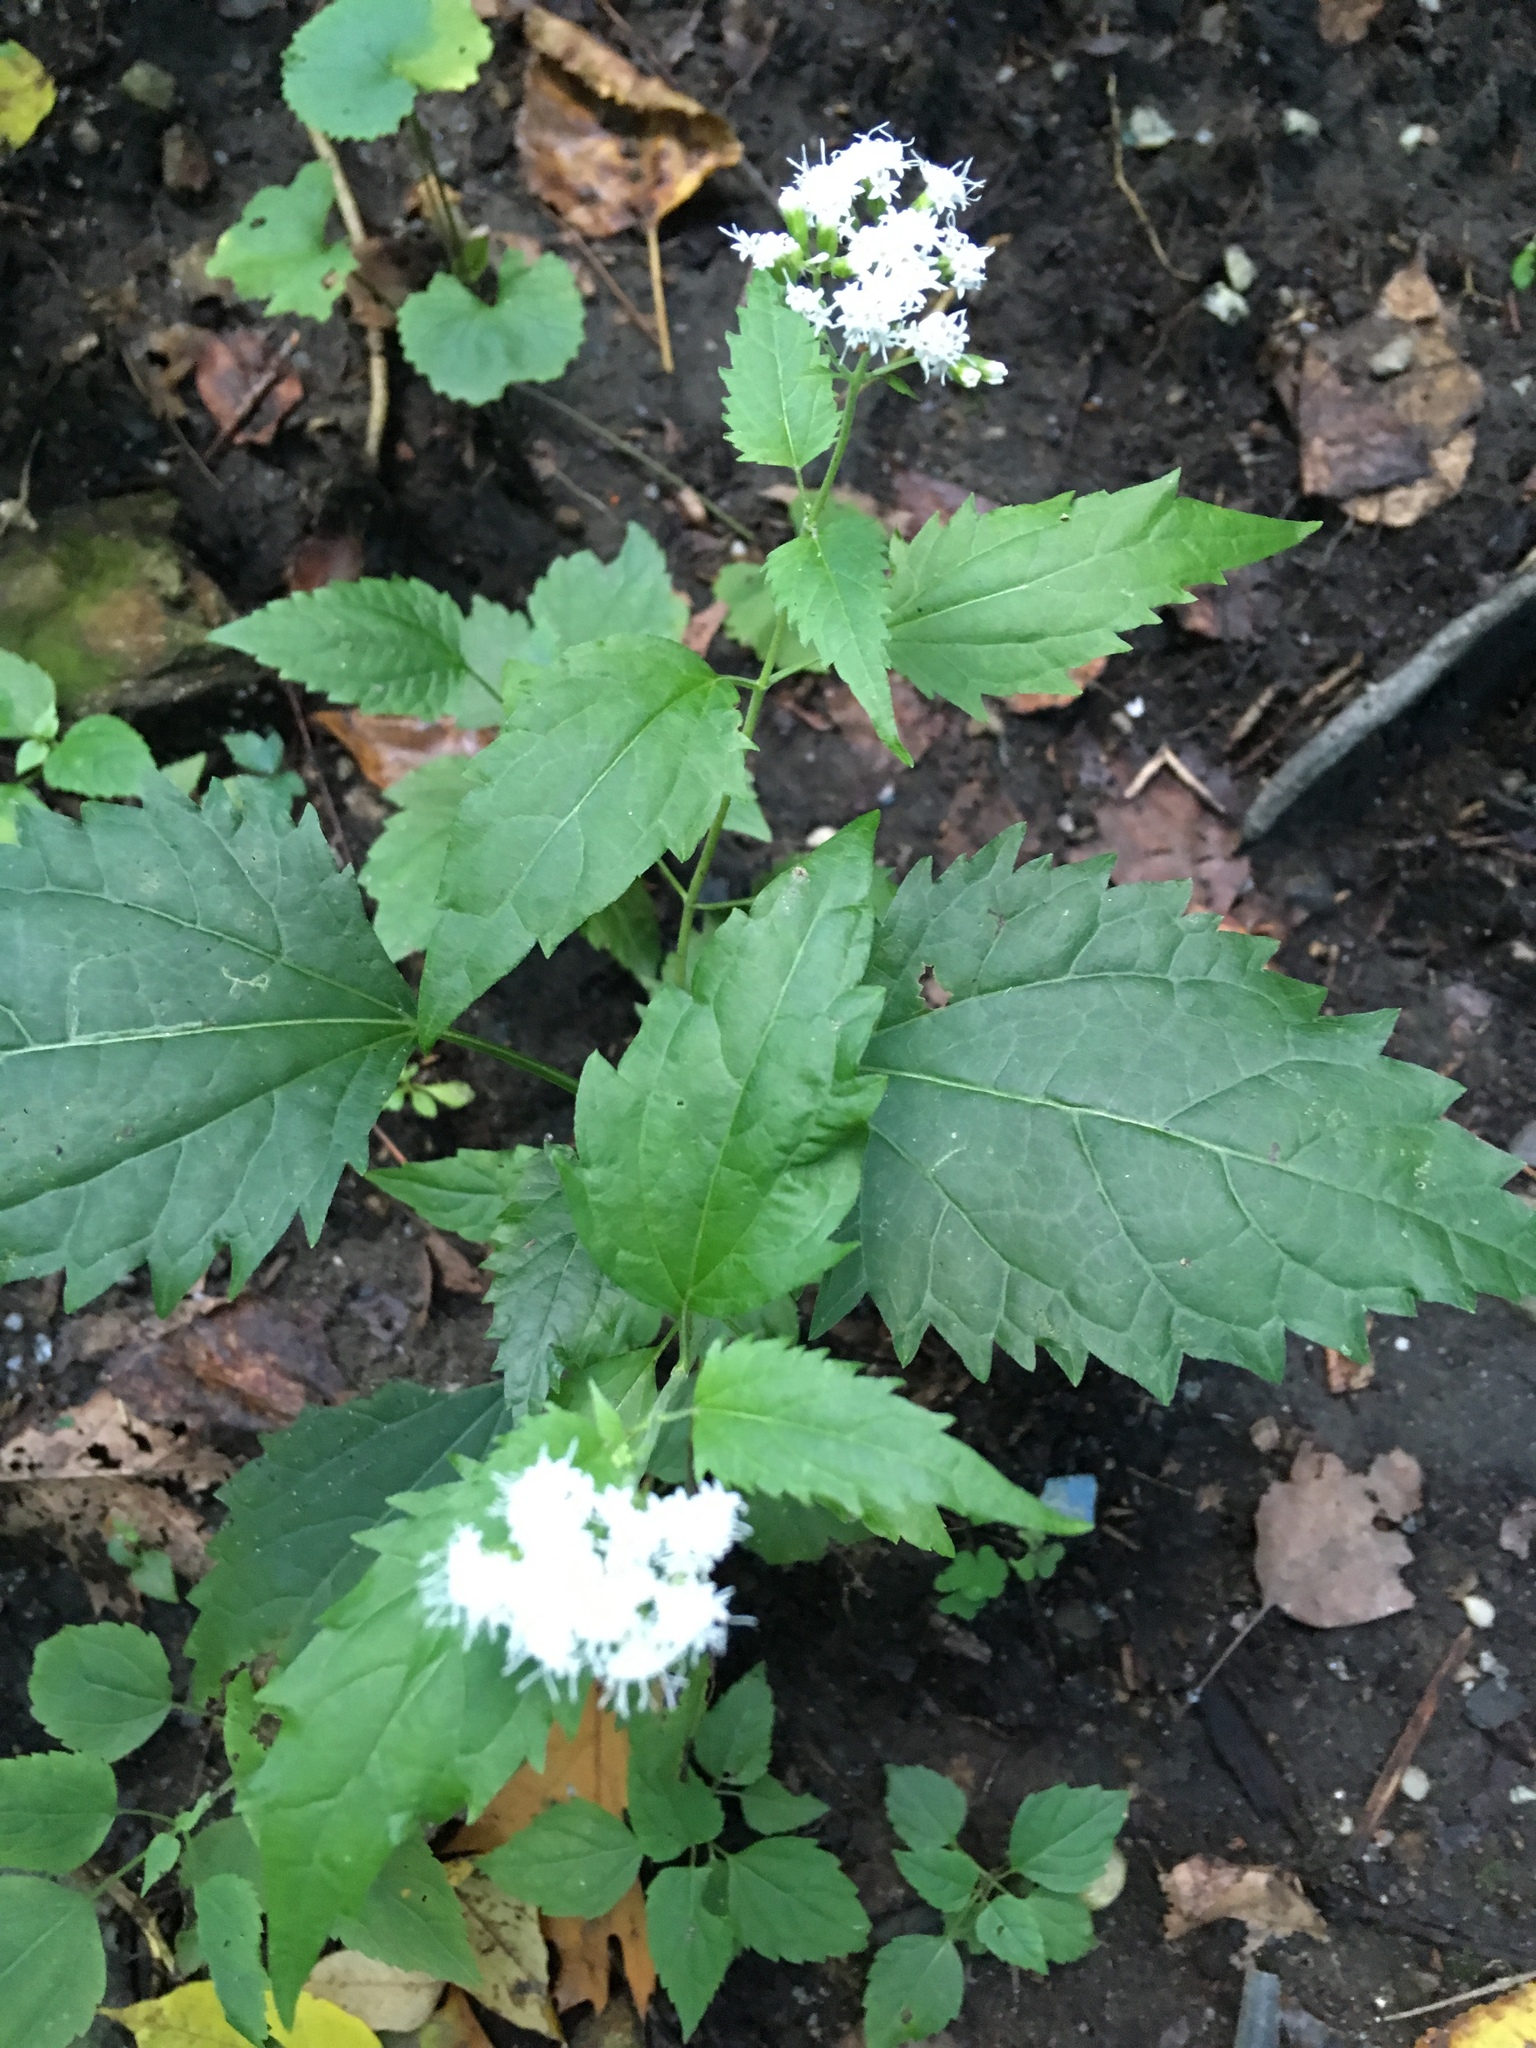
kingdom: Plantae
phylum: Tracheophyta
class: Magnoliopsida
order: Asterales
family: Asteraceae
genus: Ageratina
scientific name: Ageratina altissima
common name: White snakeroot
